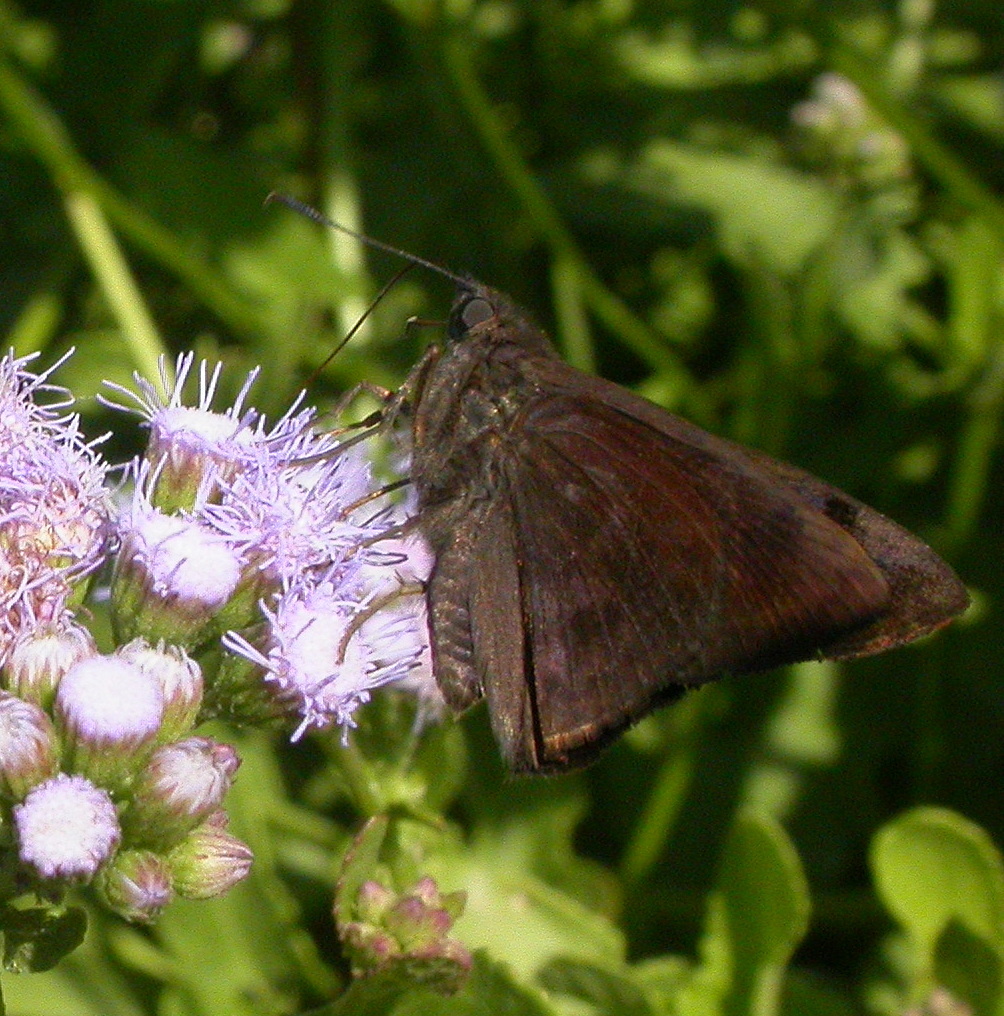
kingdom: Animalia
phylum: Arthropoda
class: Insecta
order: Lepidoptera
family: Hesperiidae
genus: Pellicia
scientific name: Pellicia costimacula
